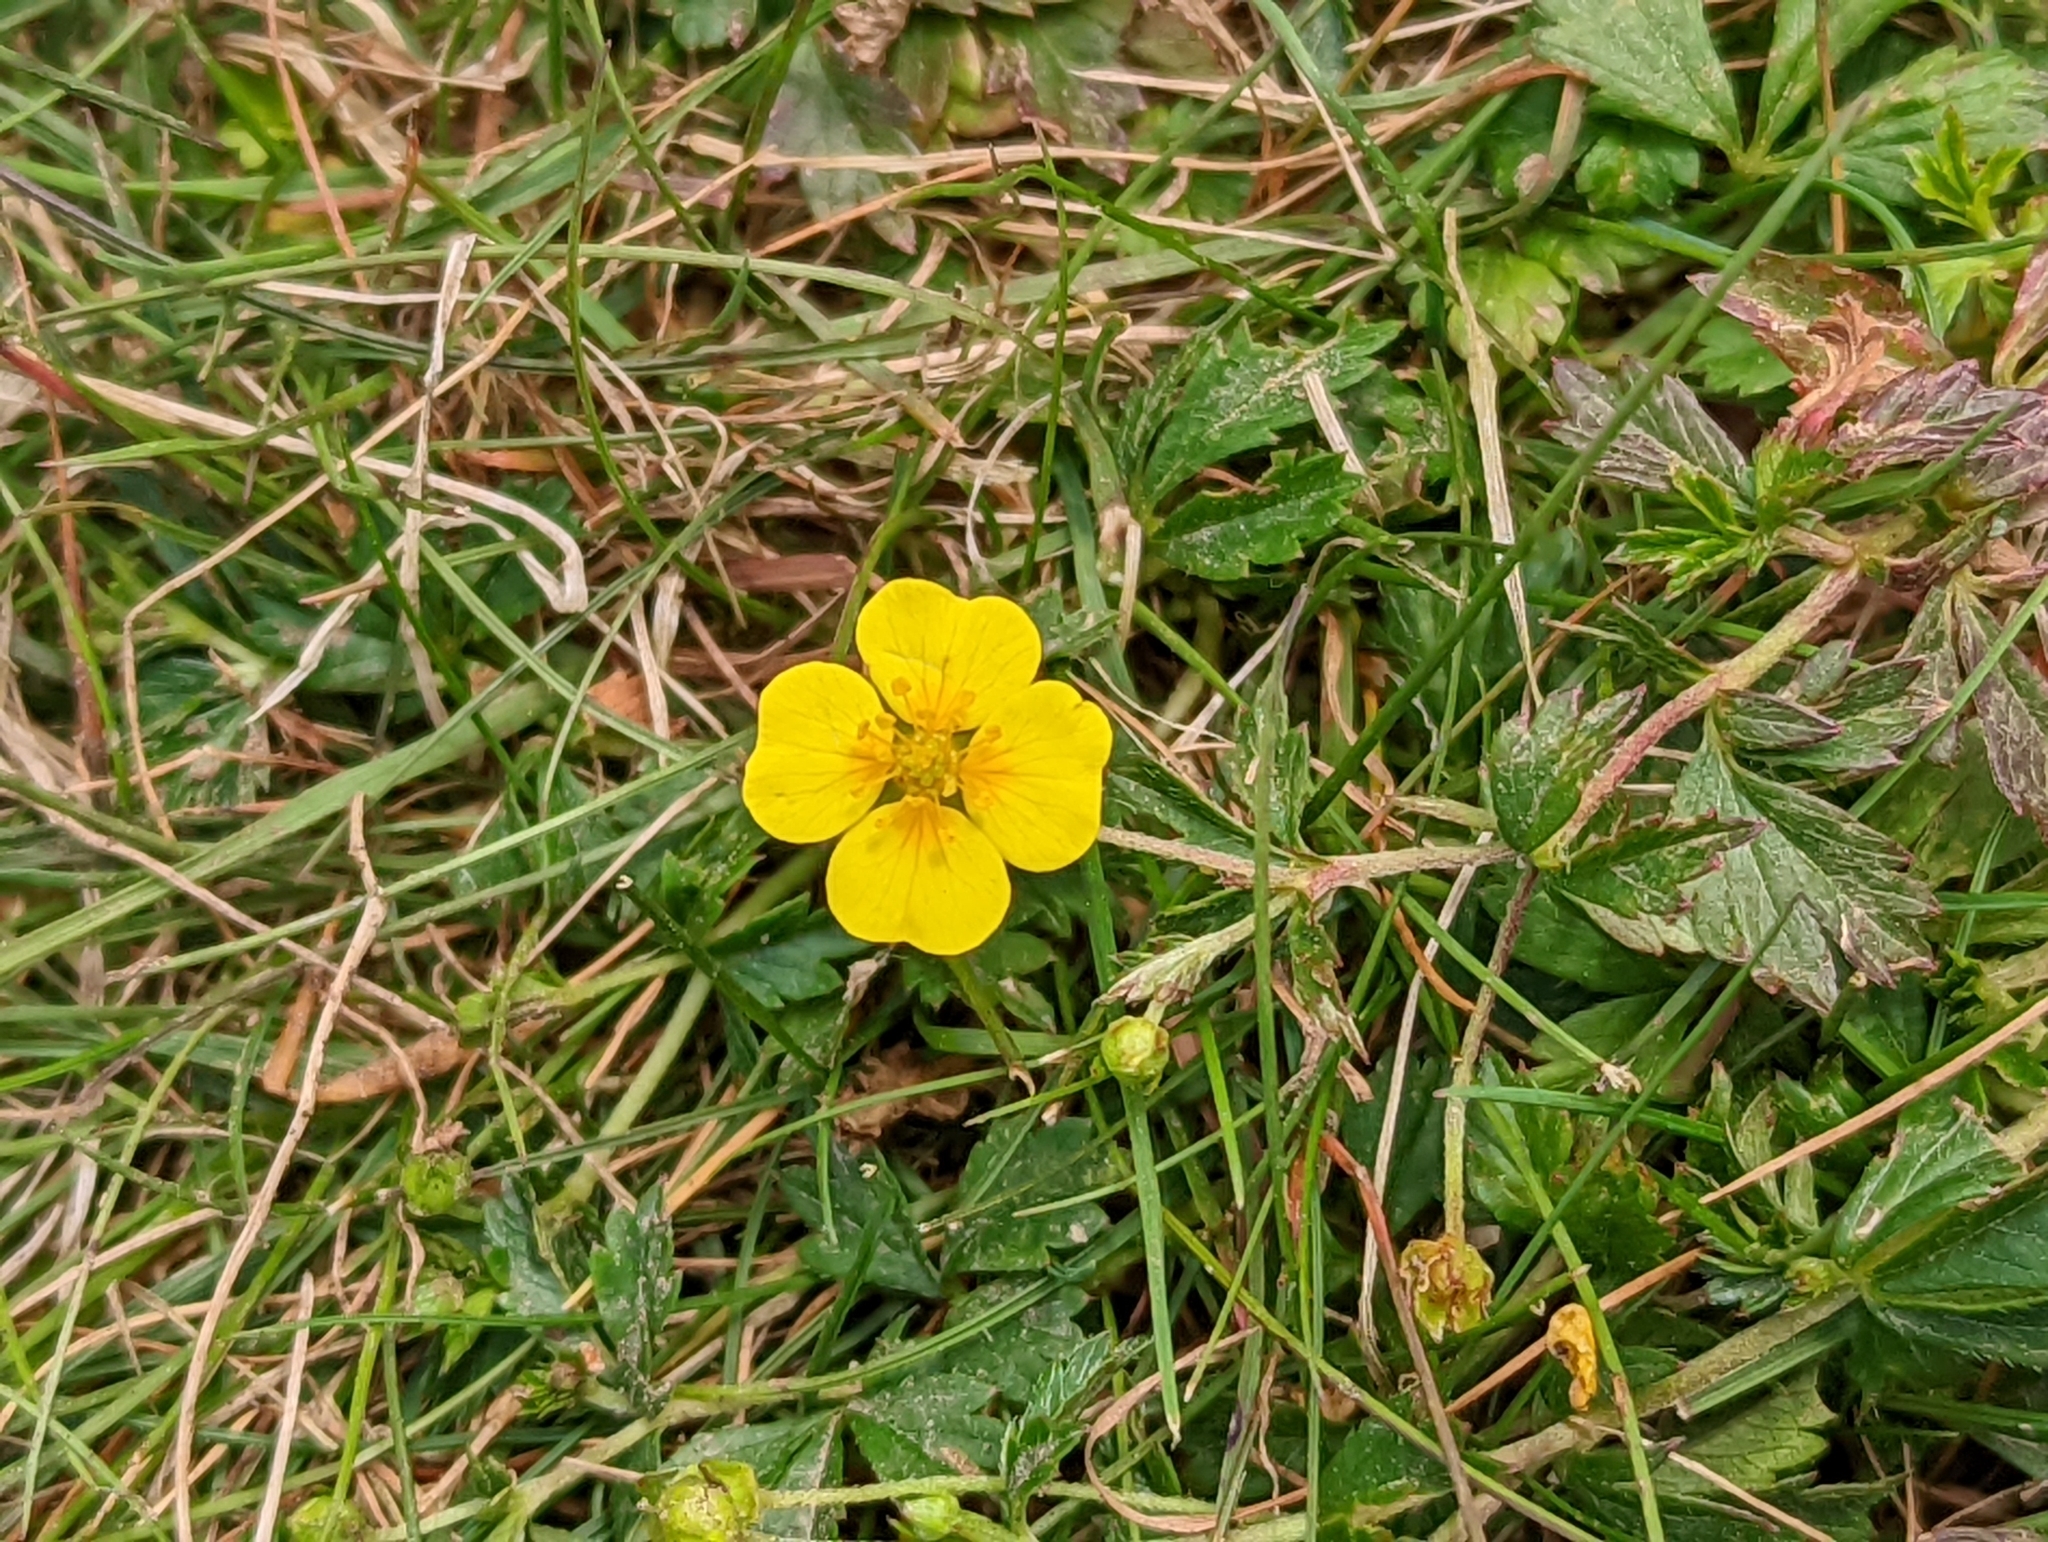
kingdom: Plantae
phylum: Tracheophyta
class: Magnoliopsida
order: Rosales
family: Rosaceae
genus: Potentilla
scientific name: Potentilla erecta
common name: Tormentil
